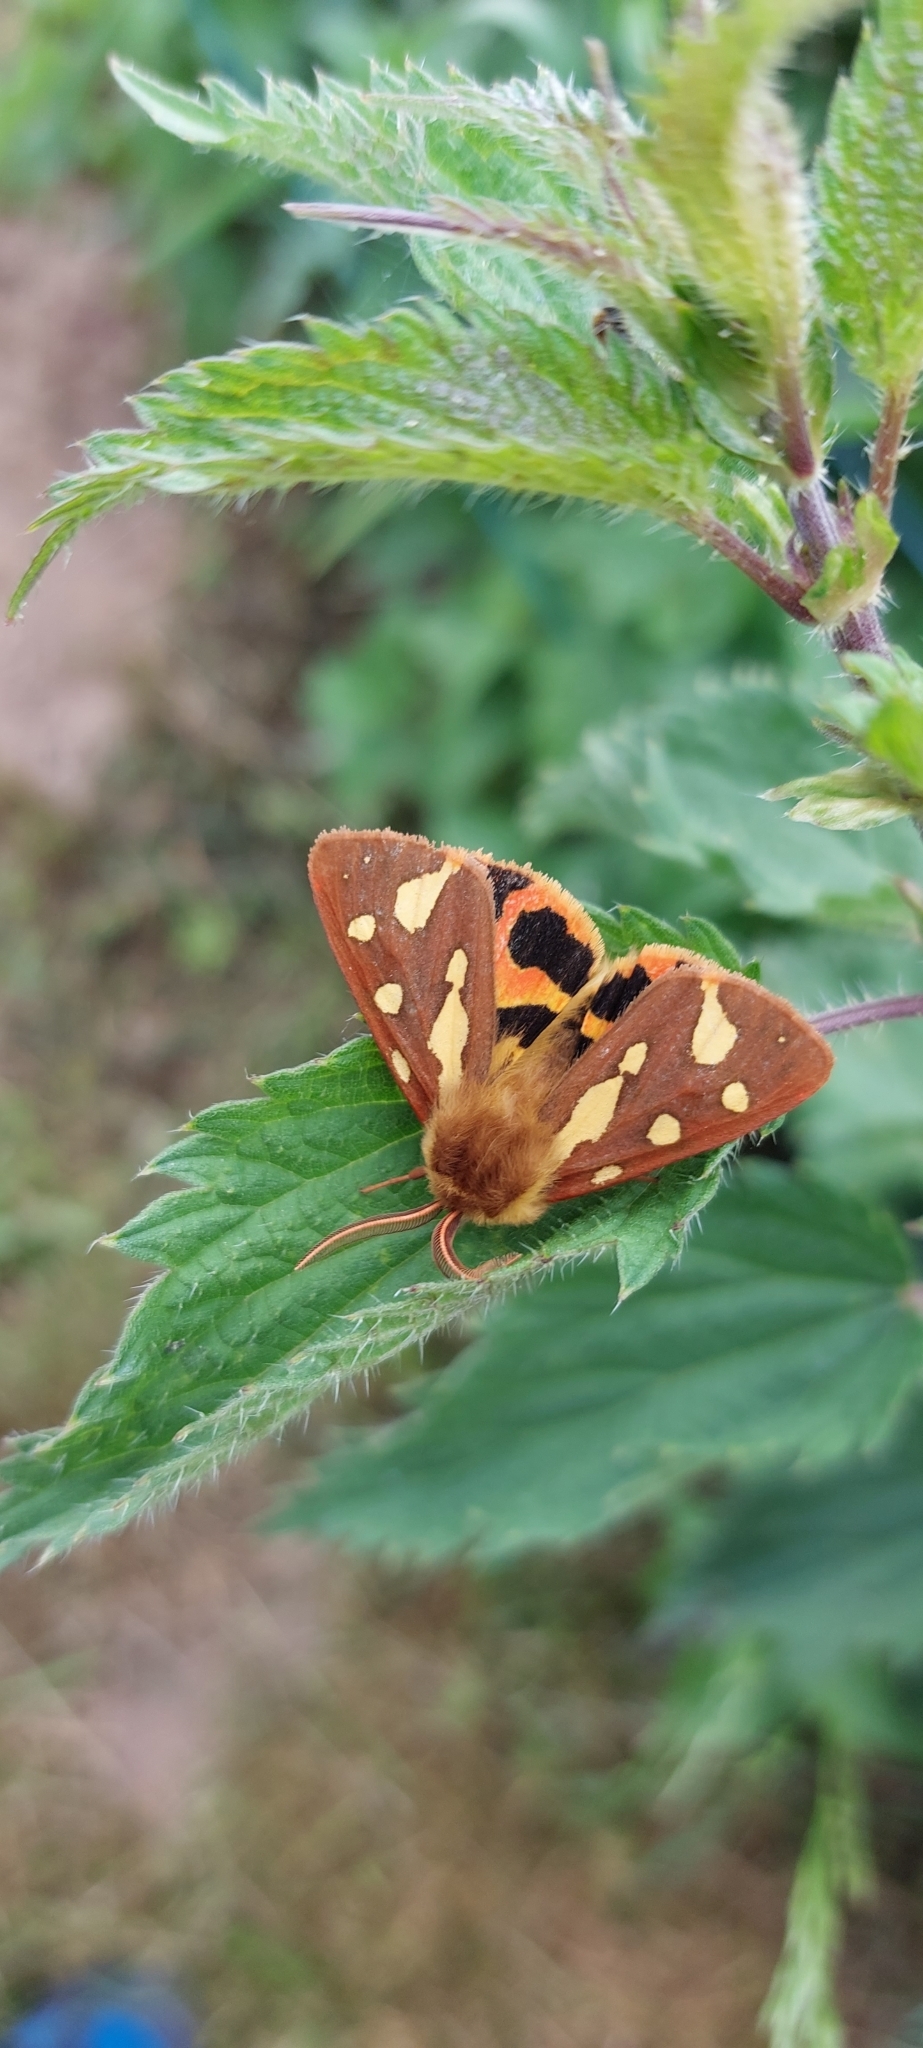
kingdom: Animalia
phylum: Arthropoda
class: Insecta
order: Lepidoptera
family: Erebidae
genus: Arctia
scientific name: Arctia testudinaria
